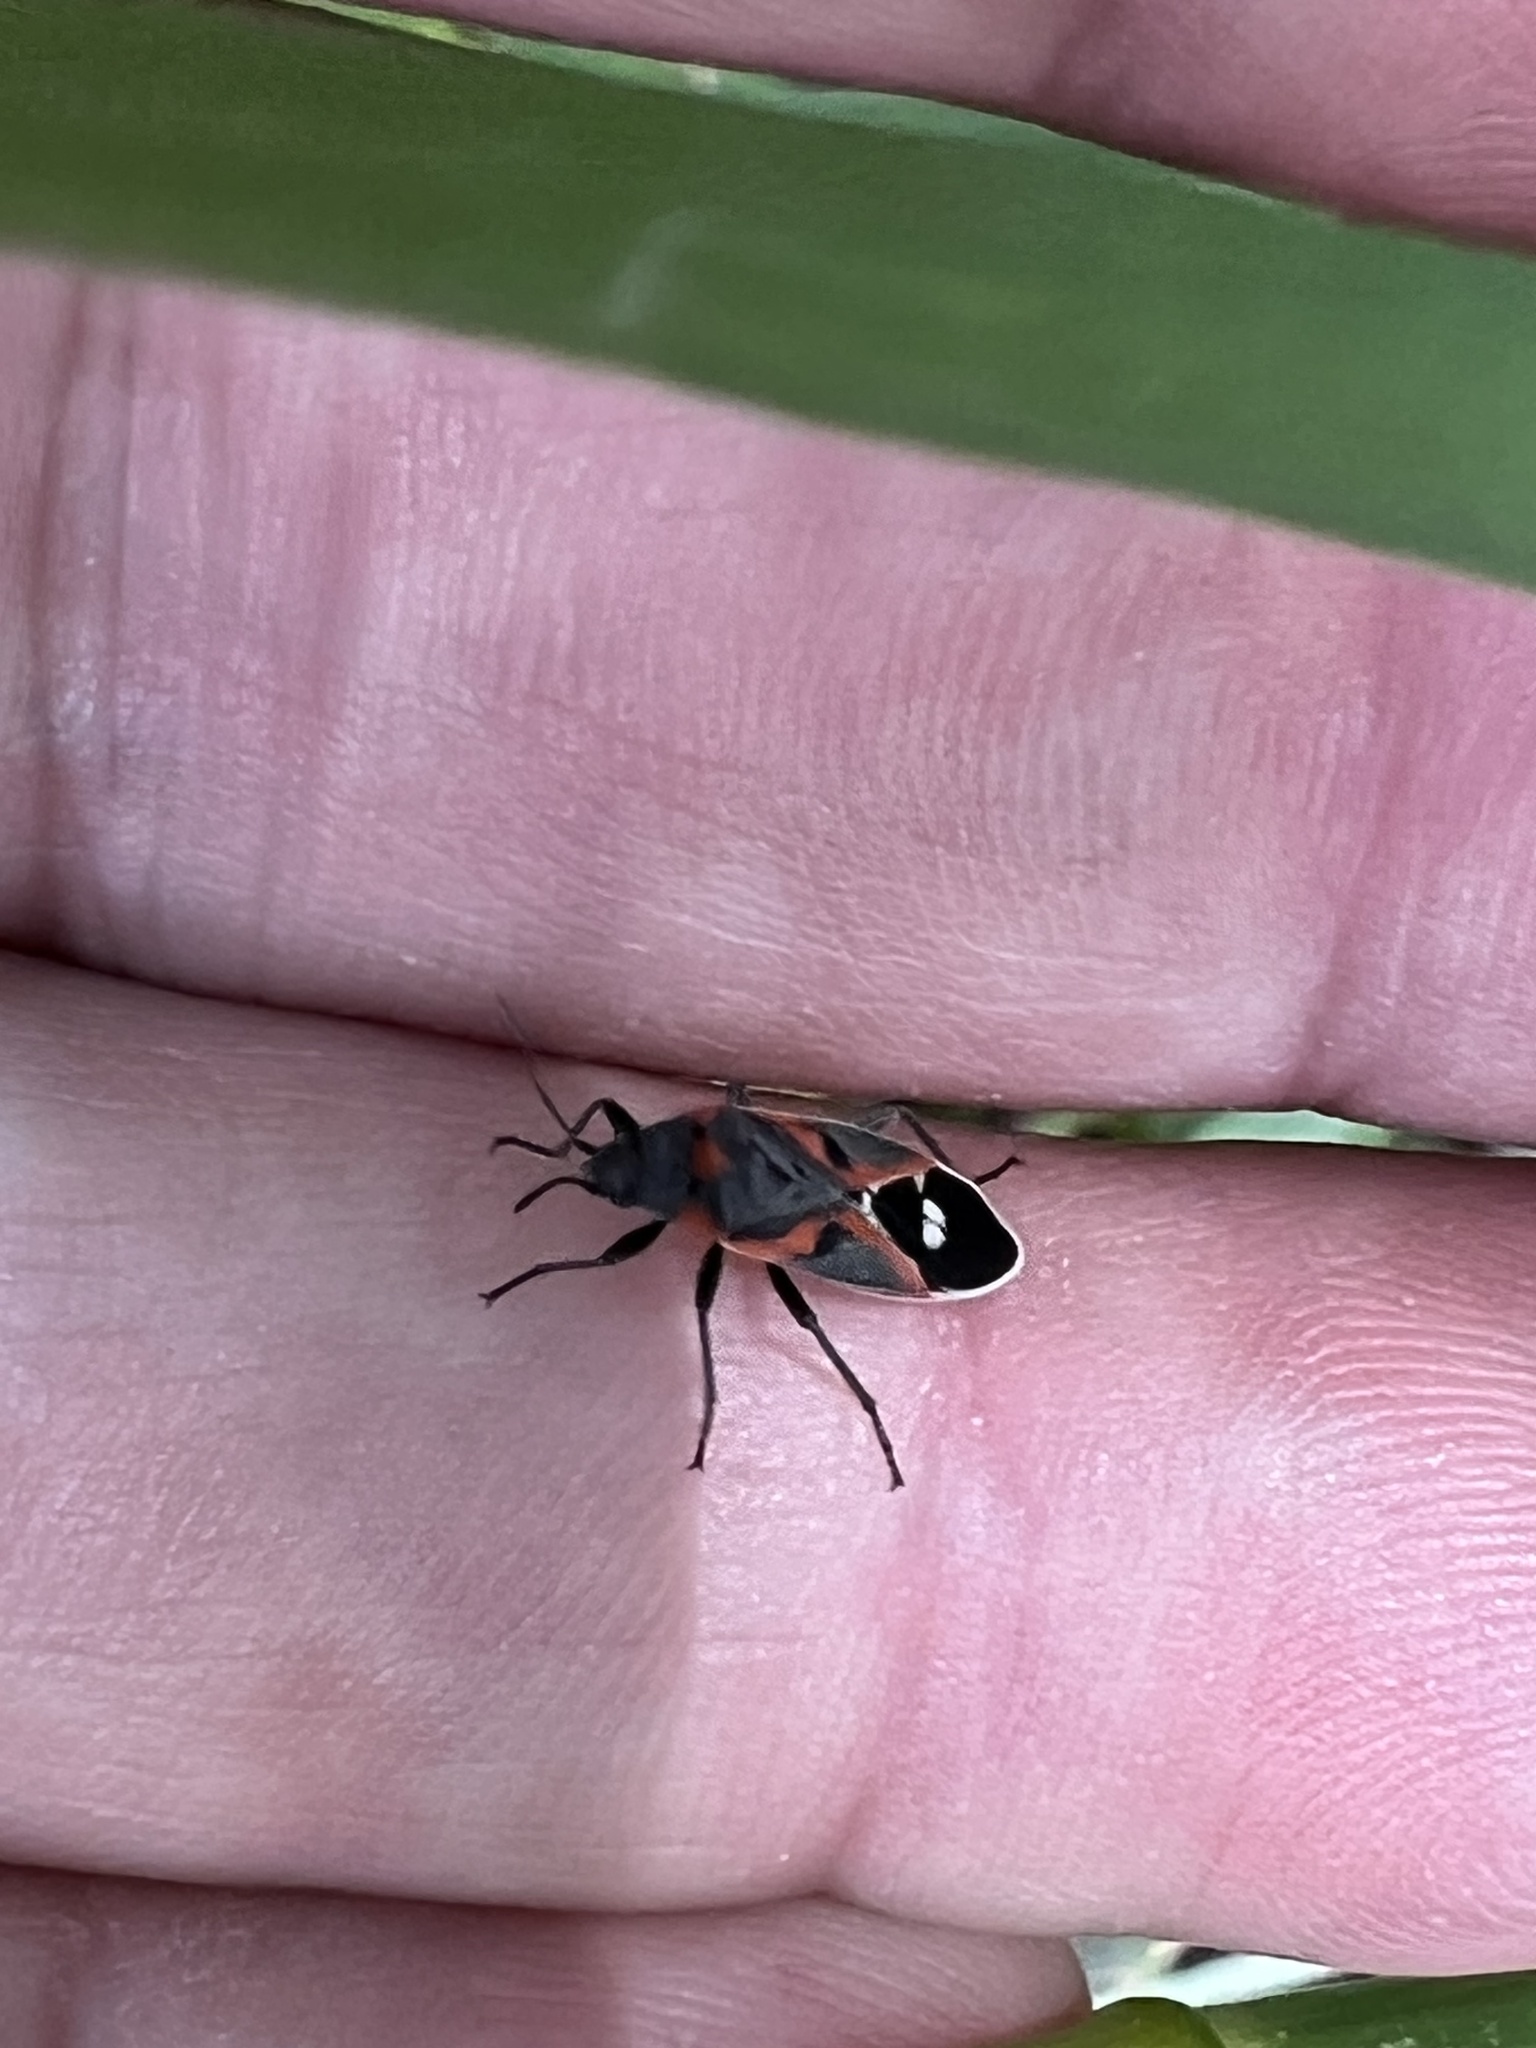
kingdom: Animalia
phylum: Arthropoda
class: Insecta
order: Hemiptera
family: Lygaeidae
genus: Lygaeus
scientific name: Lygaeus kalmii
